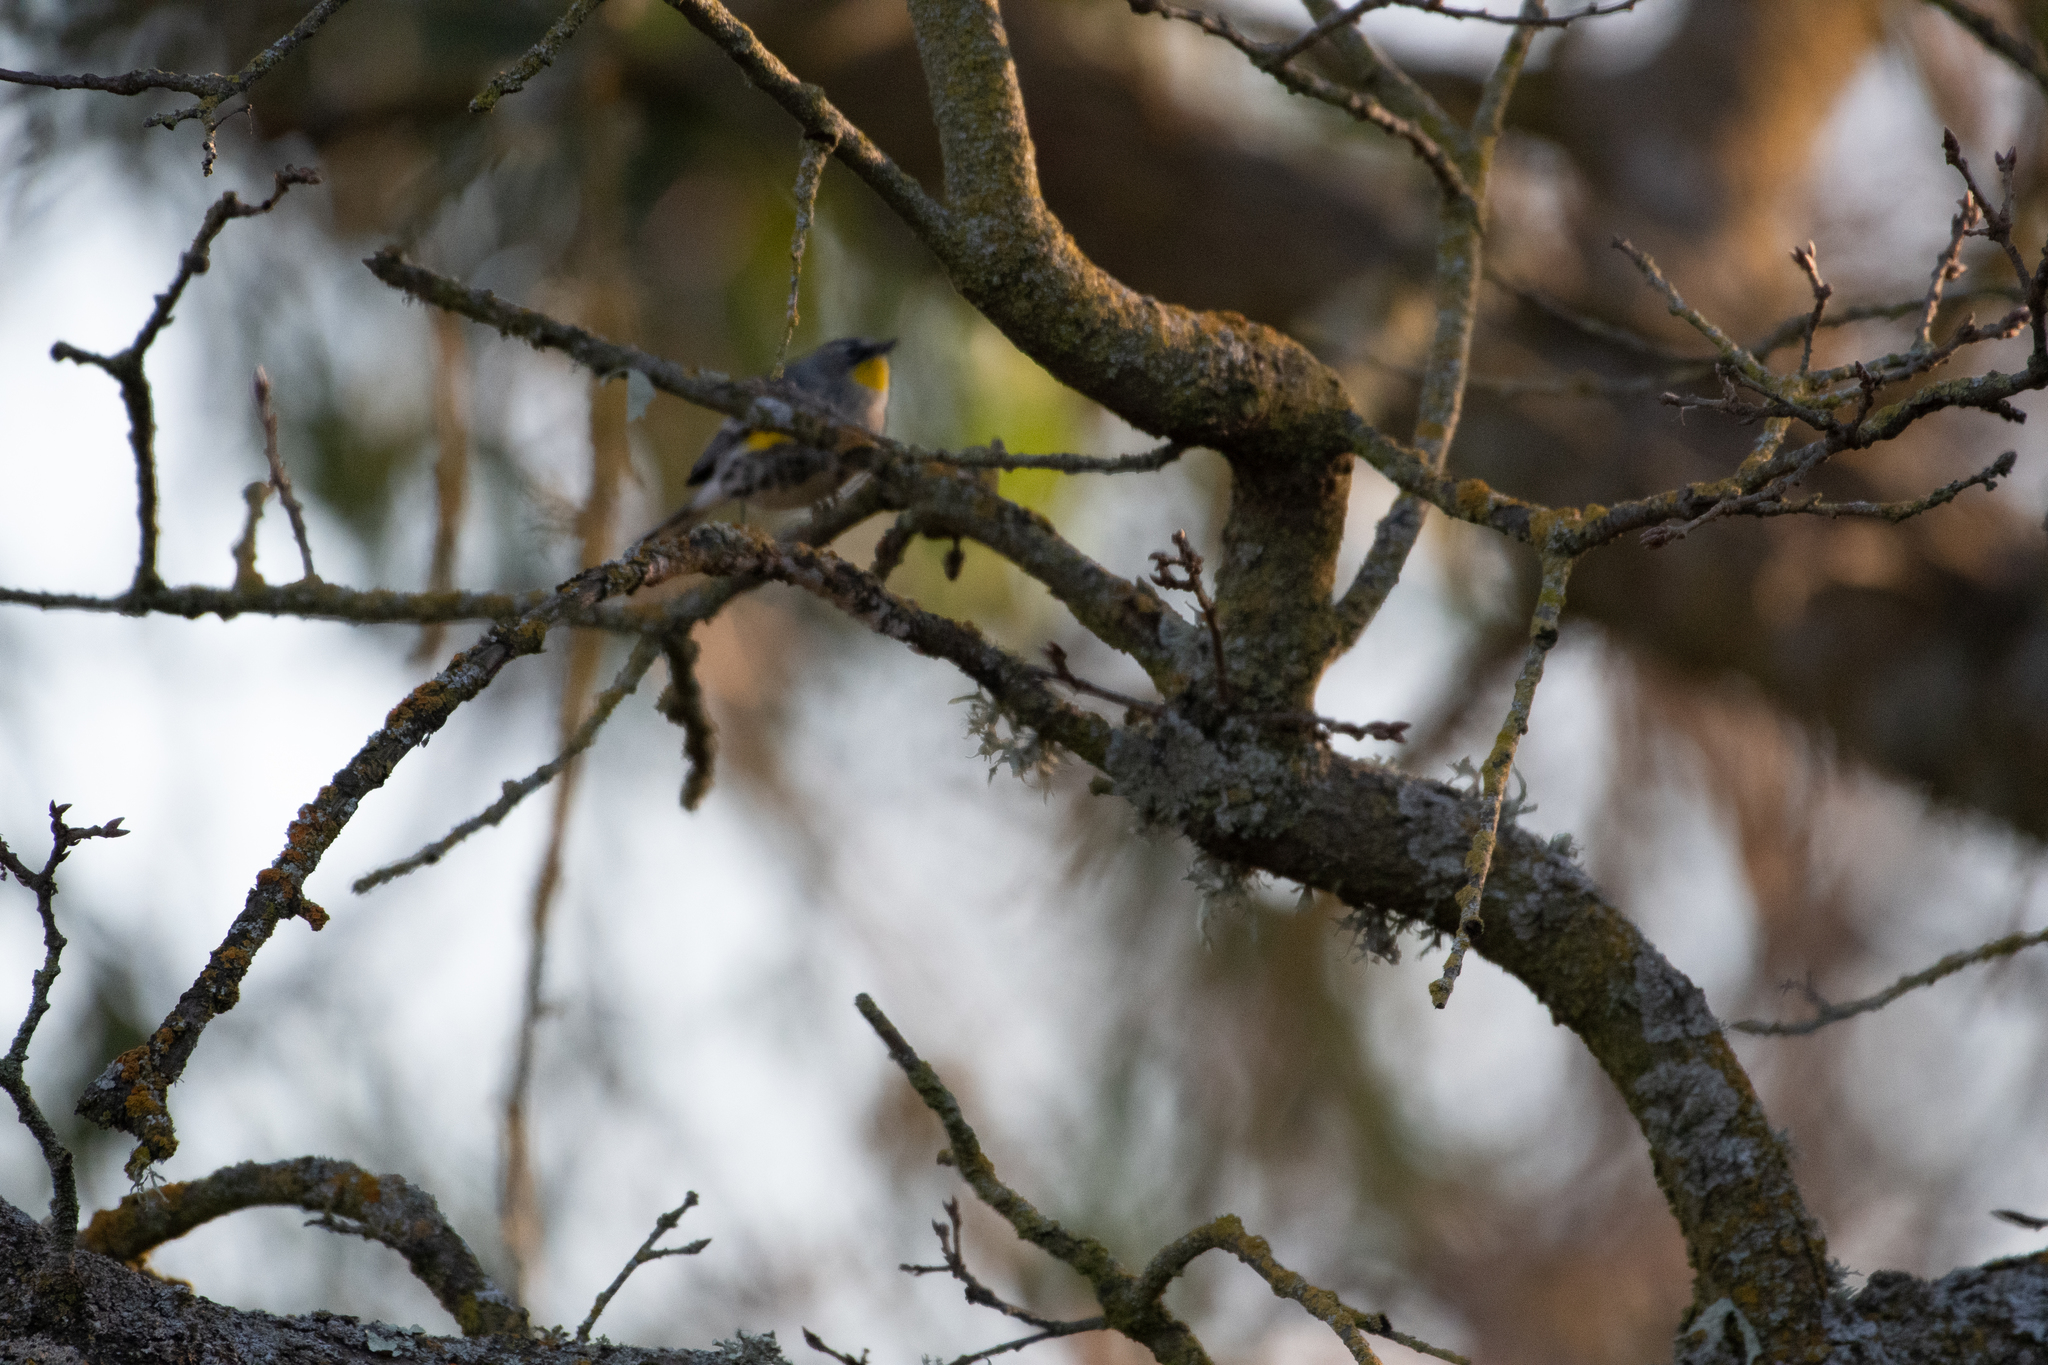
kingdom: Animalia
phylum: Chordata
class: Aves
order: Passeriformes
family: Parulidae
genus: Setophaga
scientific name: Setophaga coronata
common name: Myrtle warbler
